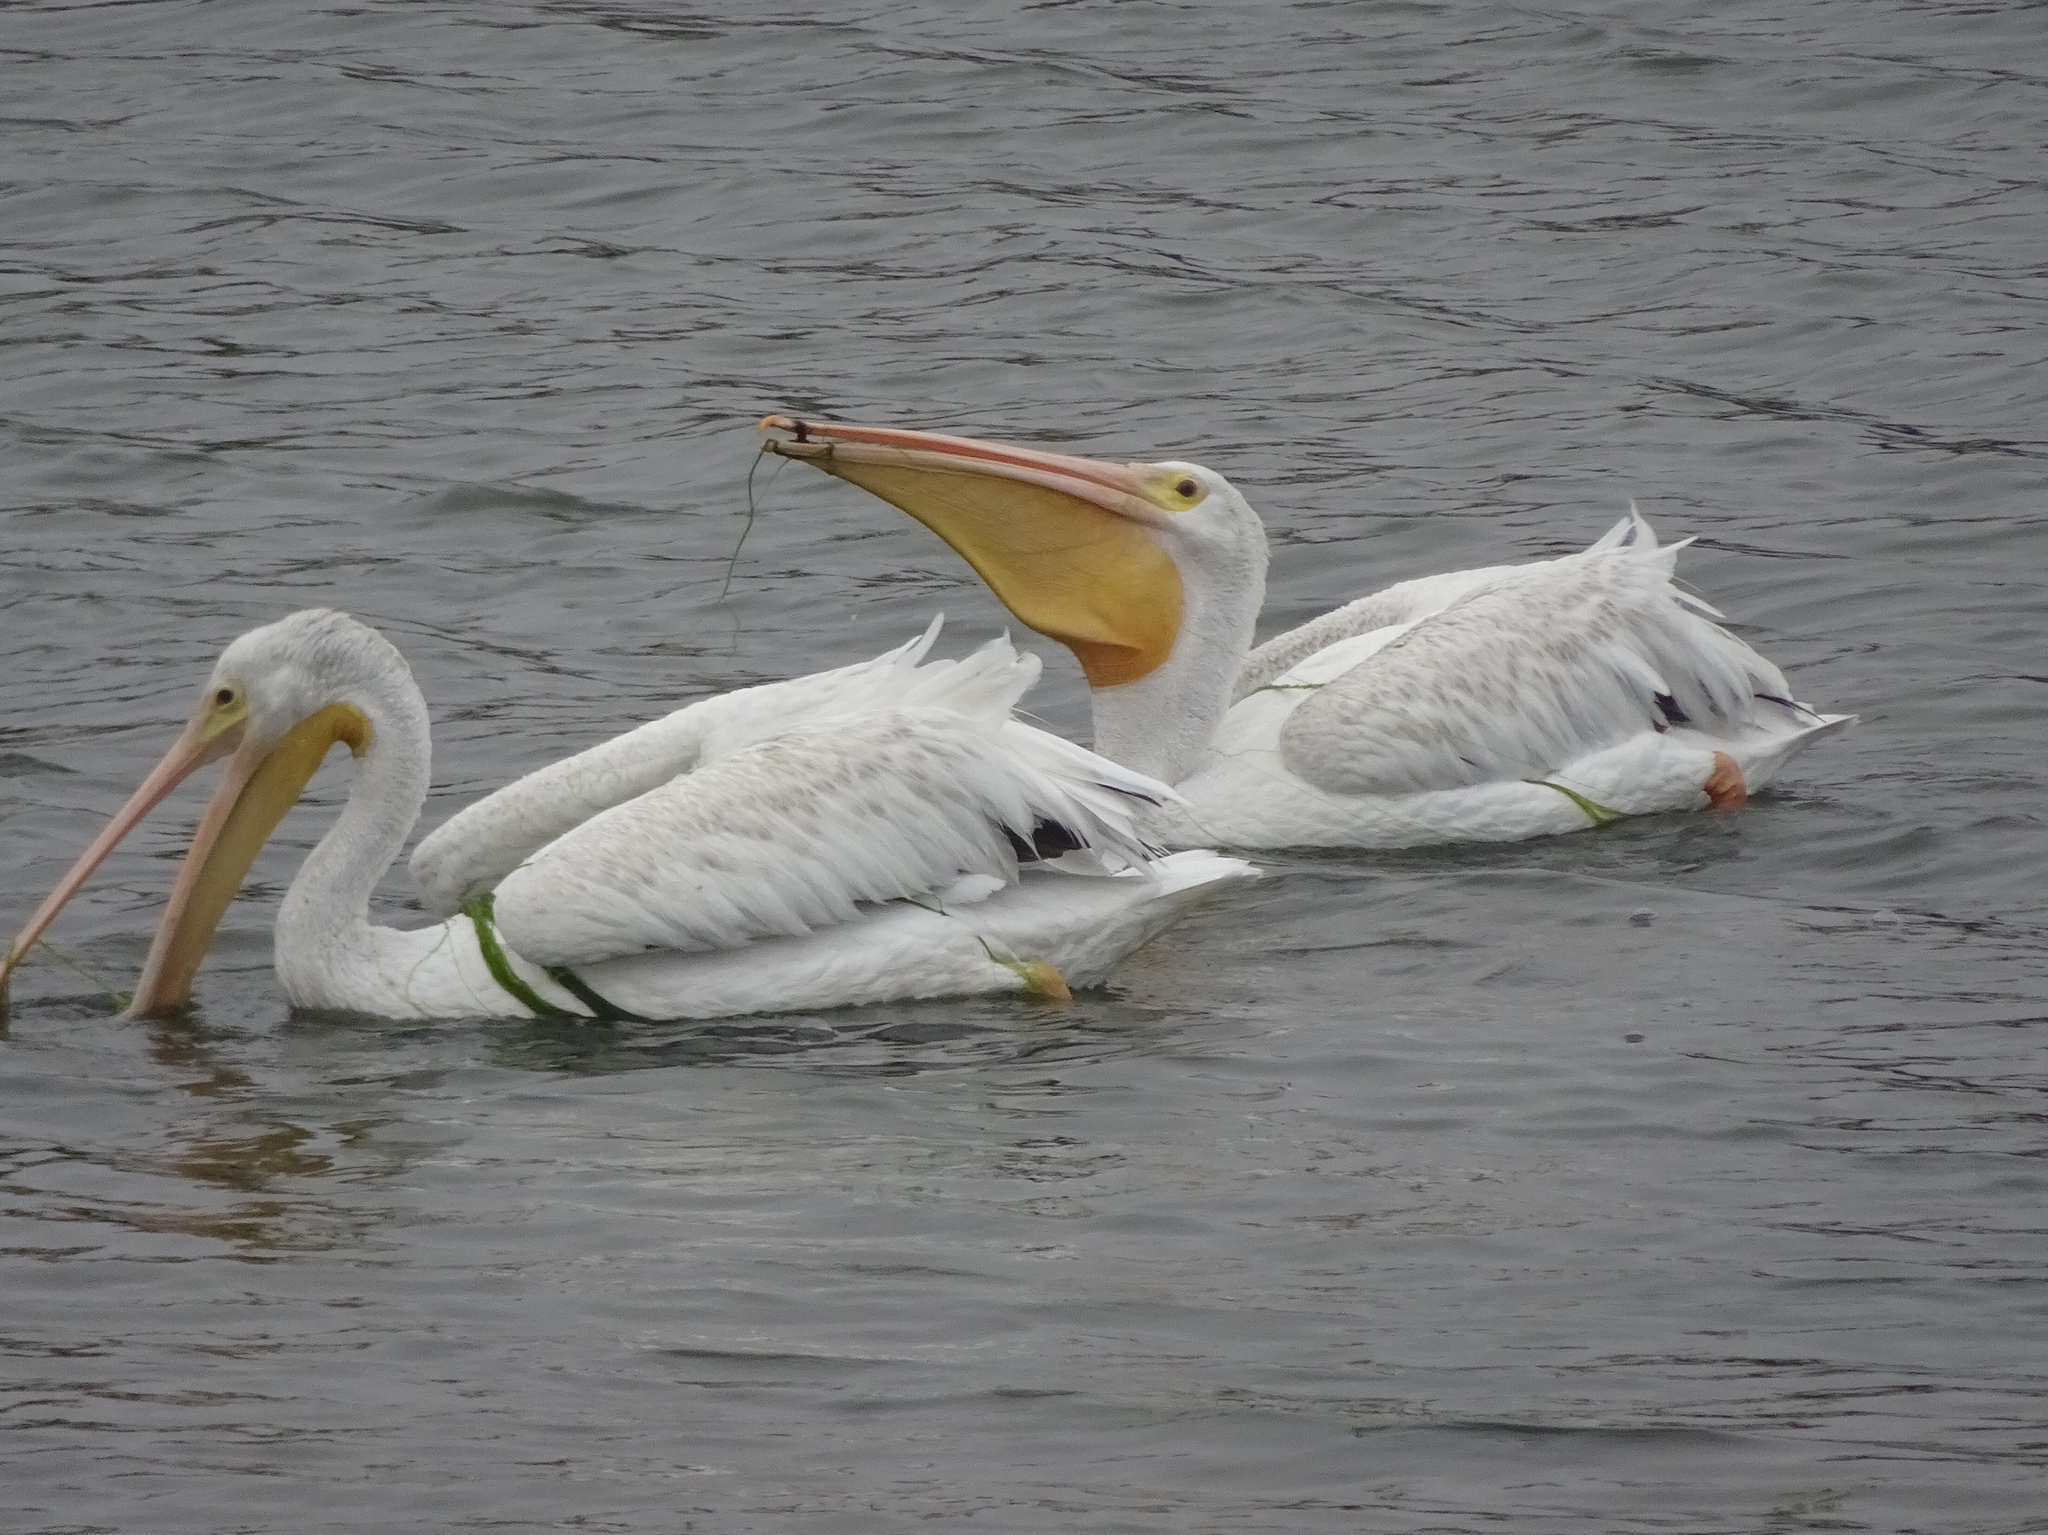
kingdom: Animalia
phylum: Chordata
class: Aves
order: Pelecaniformes
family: Pelecanidae
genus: Pelecanus
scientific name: Pelecanus erythrorhynchos
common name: American white pelican
